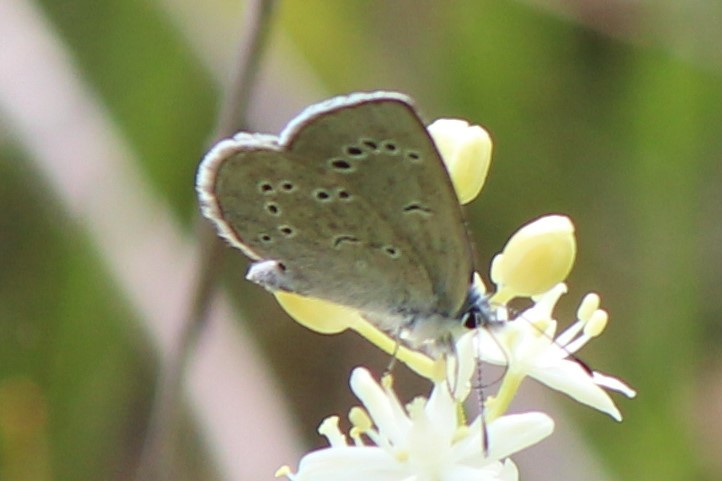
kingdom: Animalia
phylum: Arthropoda
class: Insecta
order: Lepidoptera
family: Lycaenidae
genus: Glaucopsyche
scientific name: Glaucopsyche lygdamus
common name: Silvery blue
